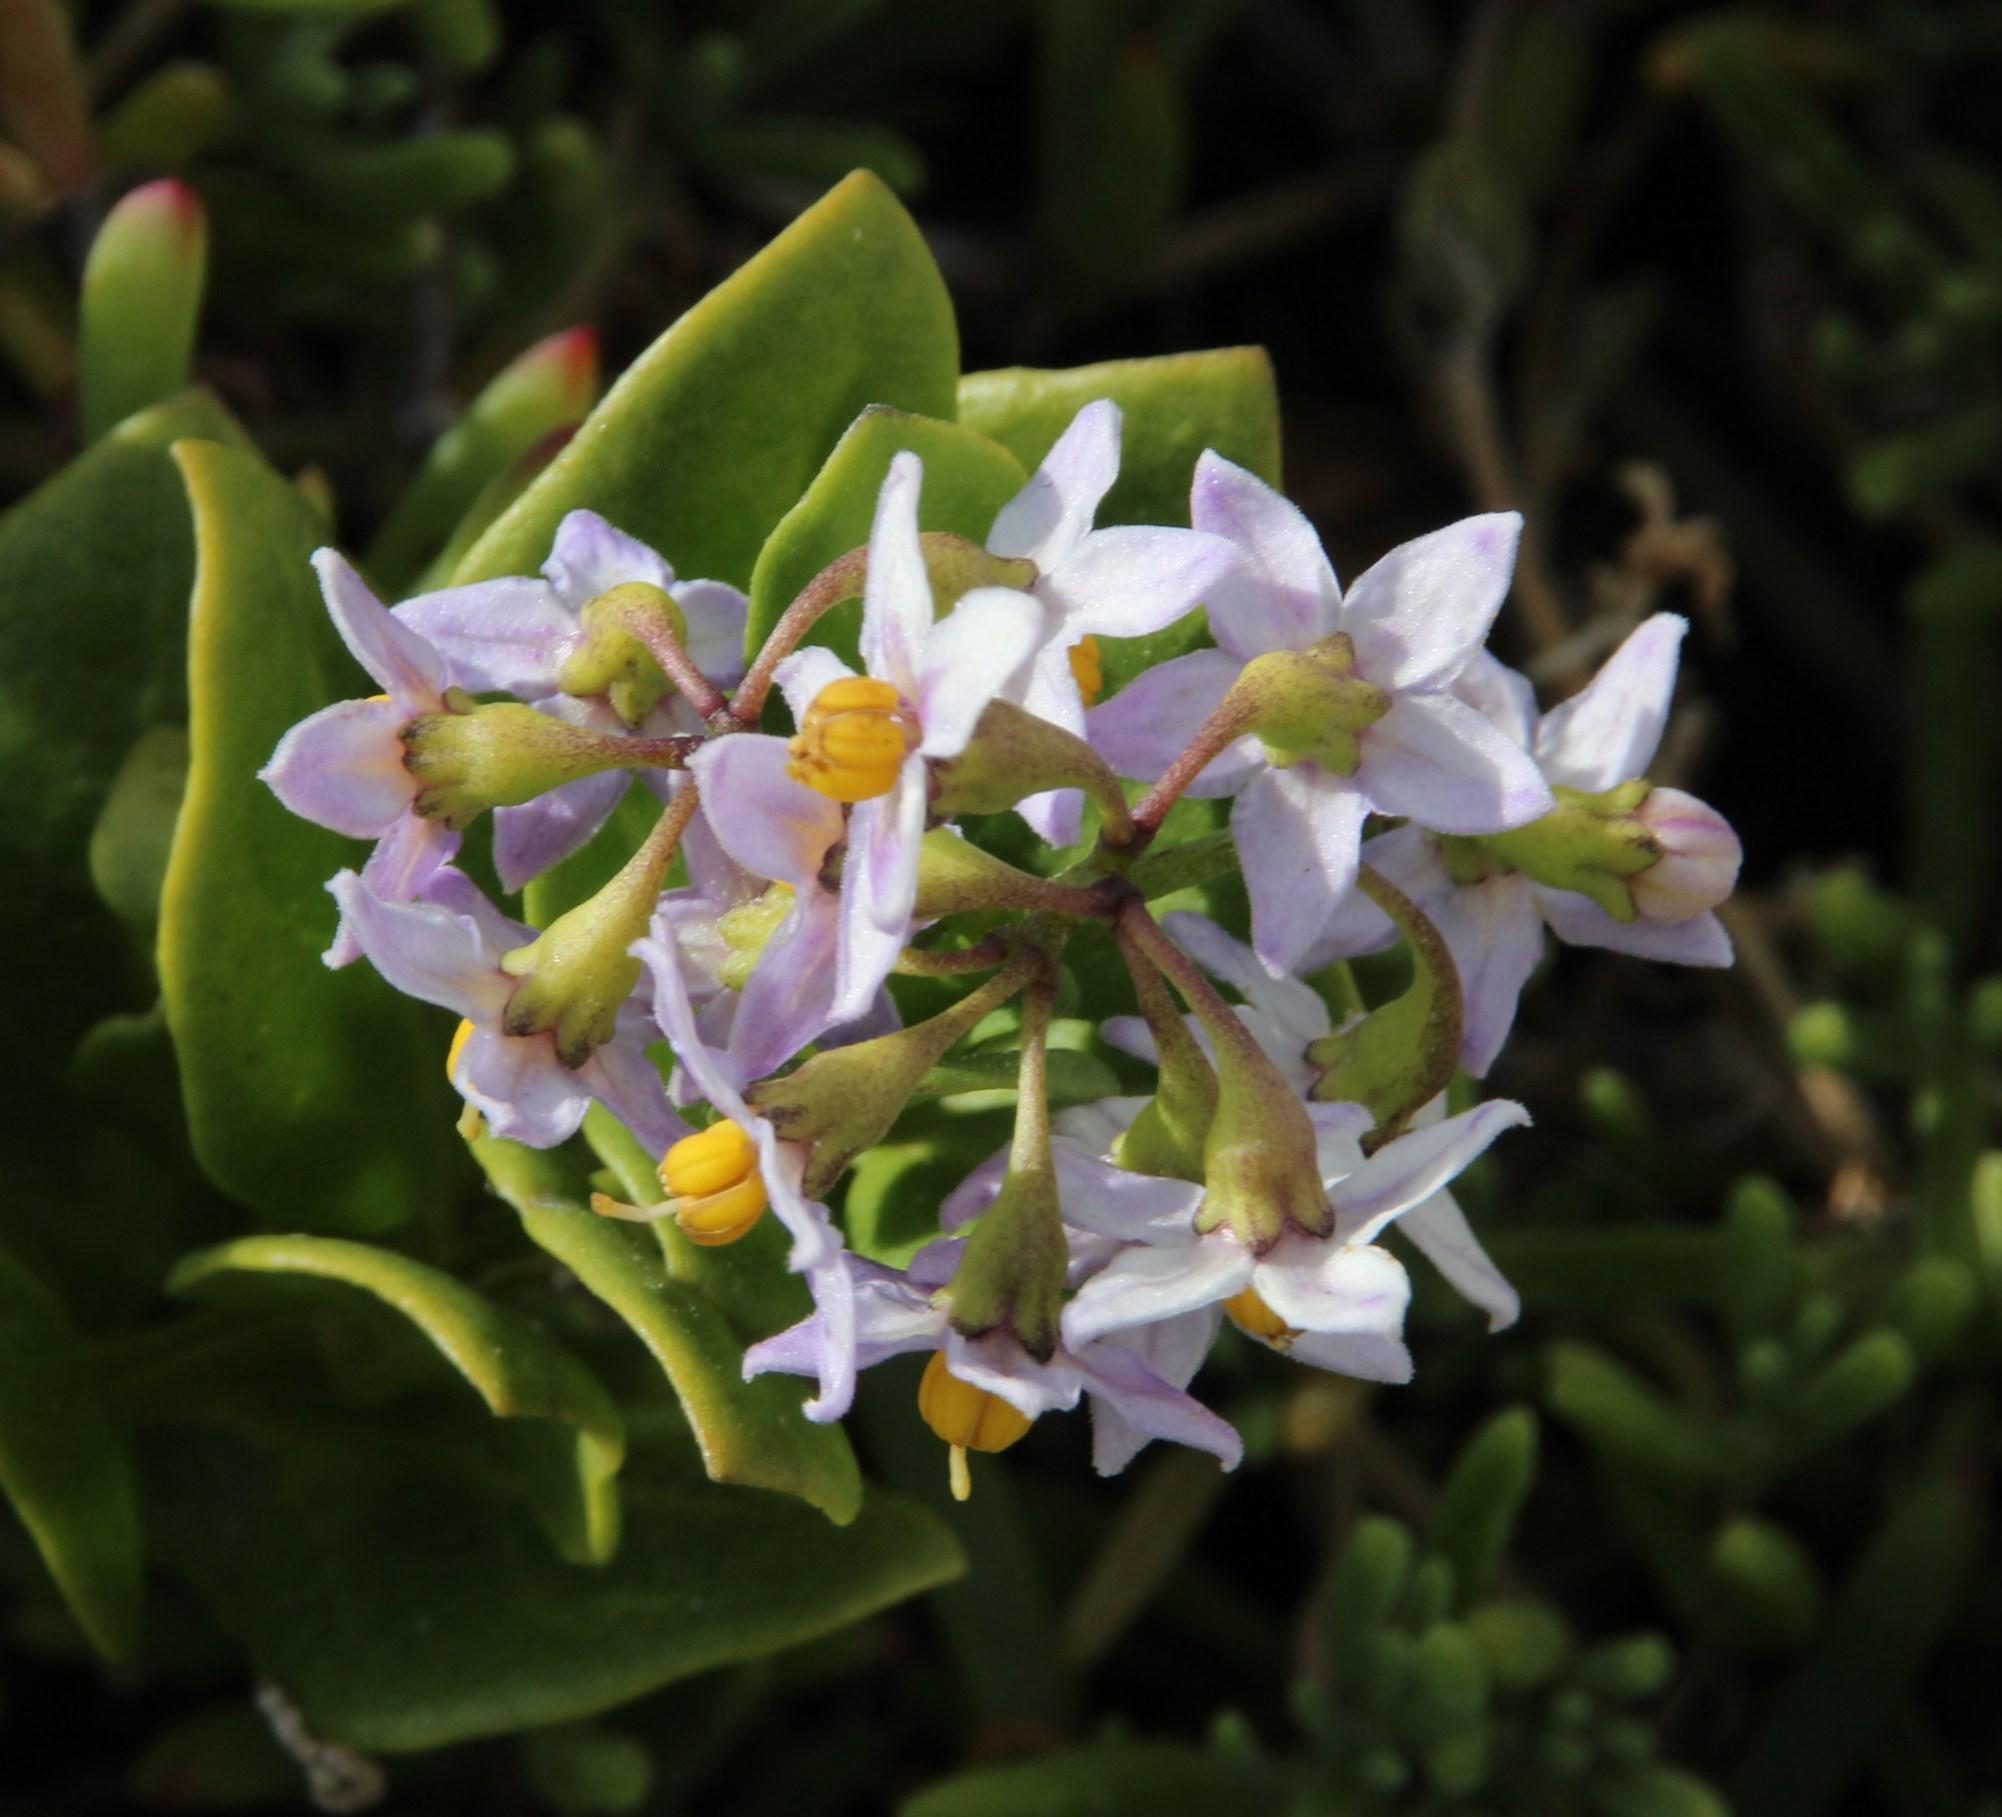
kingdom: Plantae
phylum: Tracheophyta
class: Magnoliopsida
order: Solanales
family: Solanaceae
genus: Solanum
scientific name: Solanum africanum
